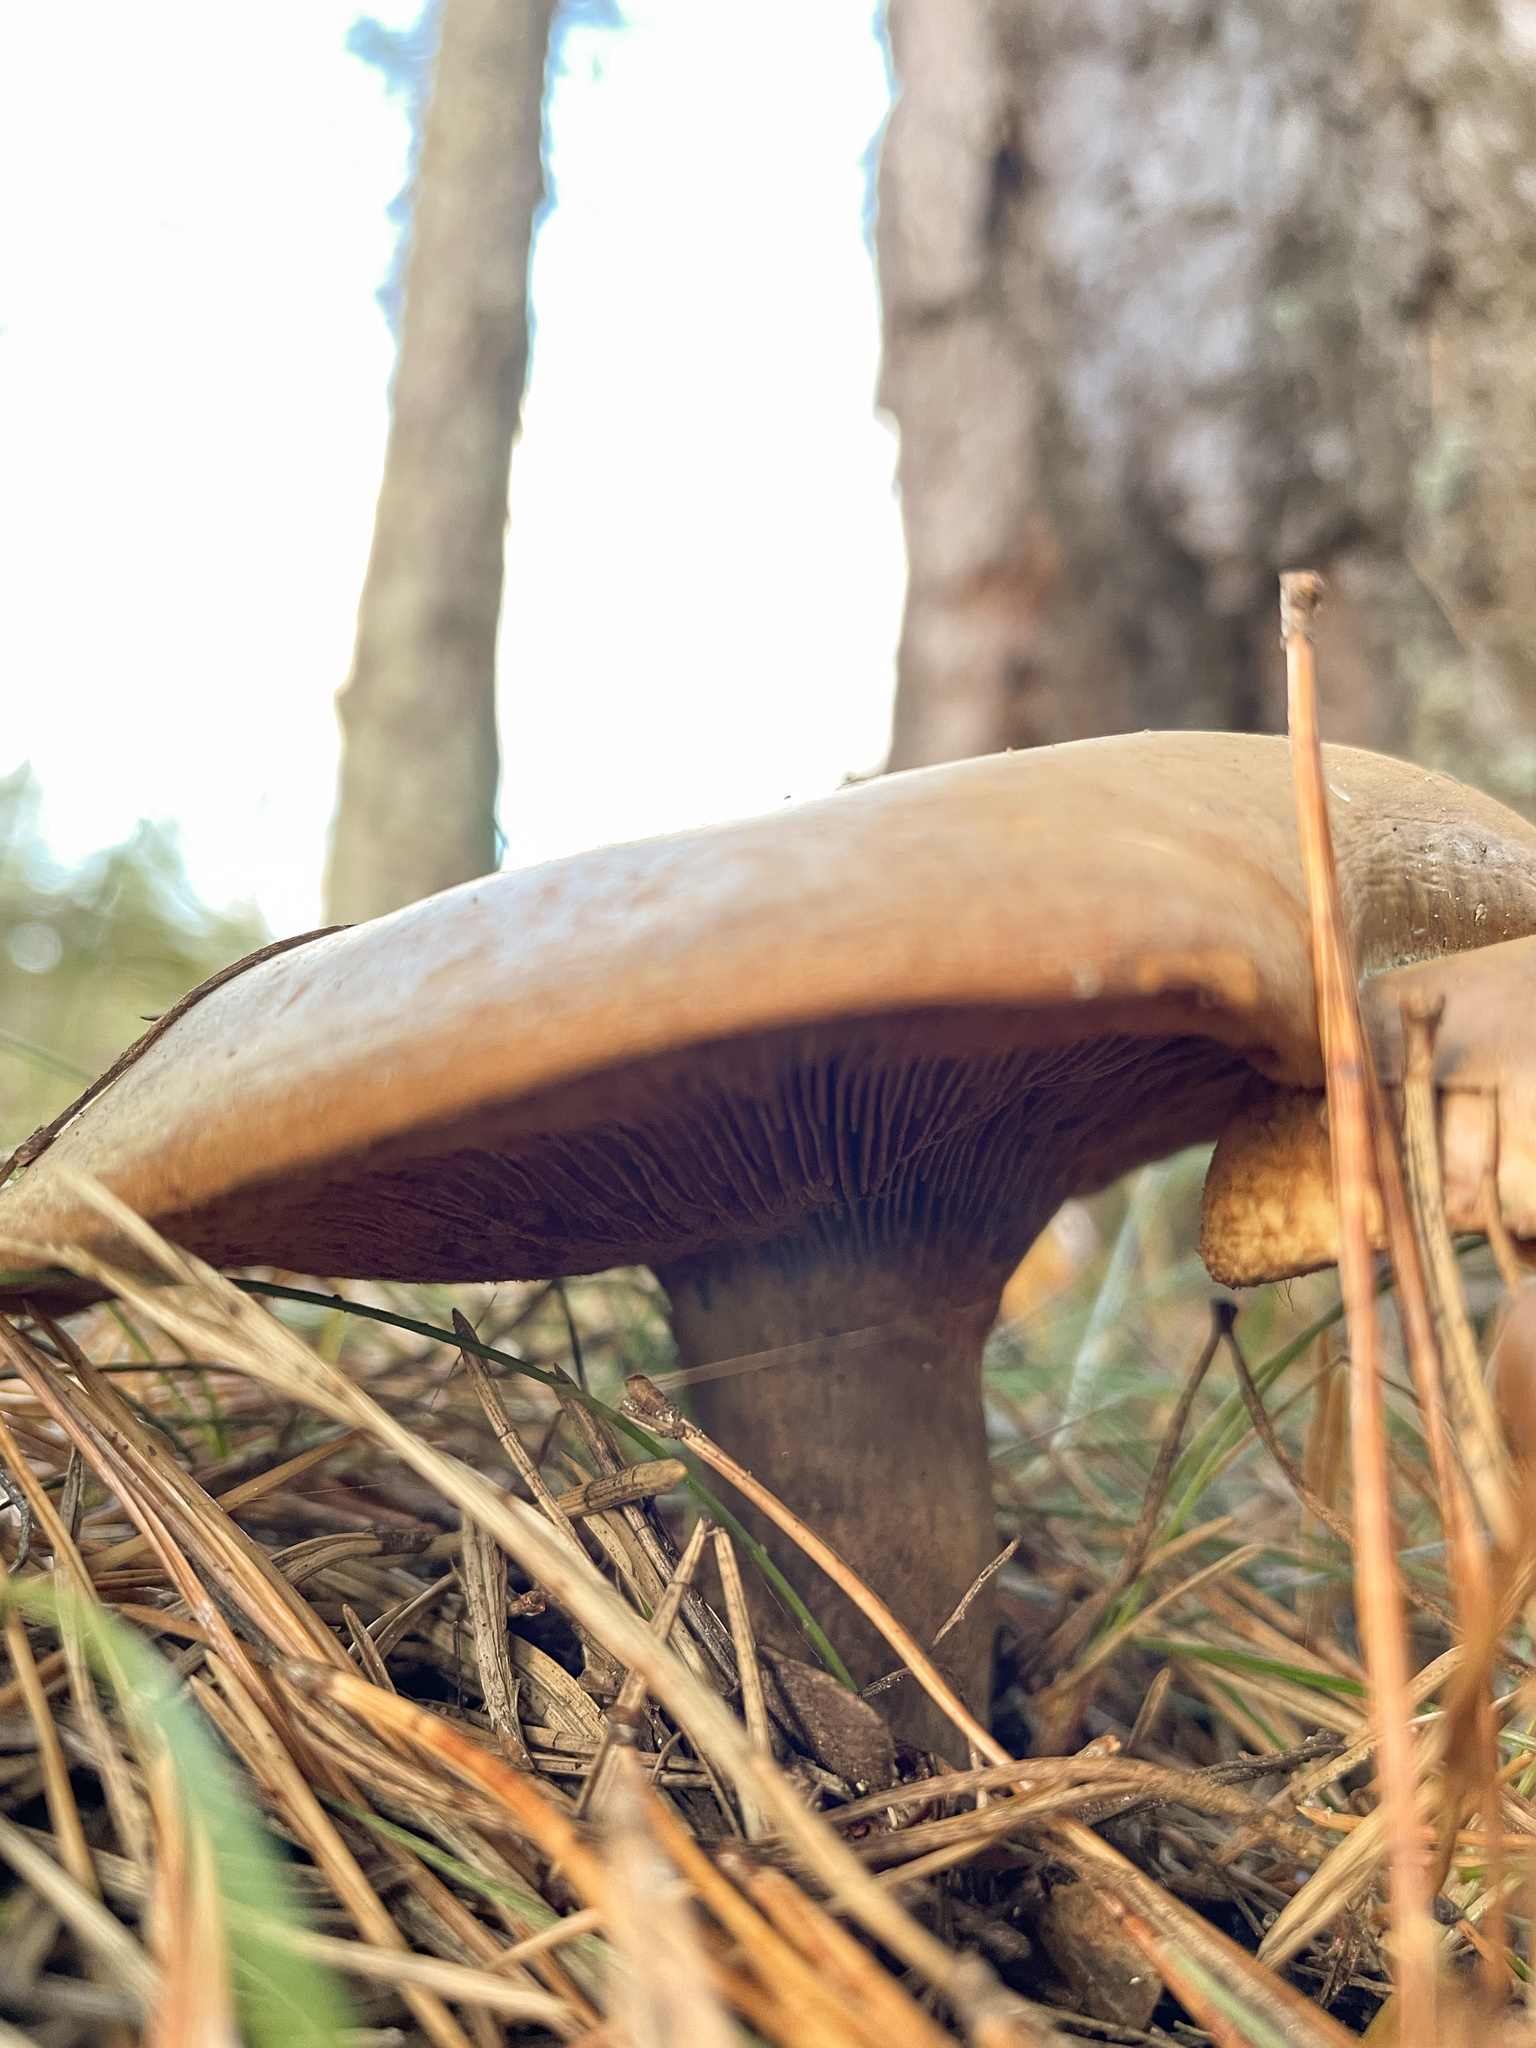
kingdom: Fungi
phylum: Basidiomycota
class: Agaricomycetes
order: Boletales
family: Paxillaceae
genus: Paxillus
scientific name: Paxillus involutus
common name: Brown roll rim
